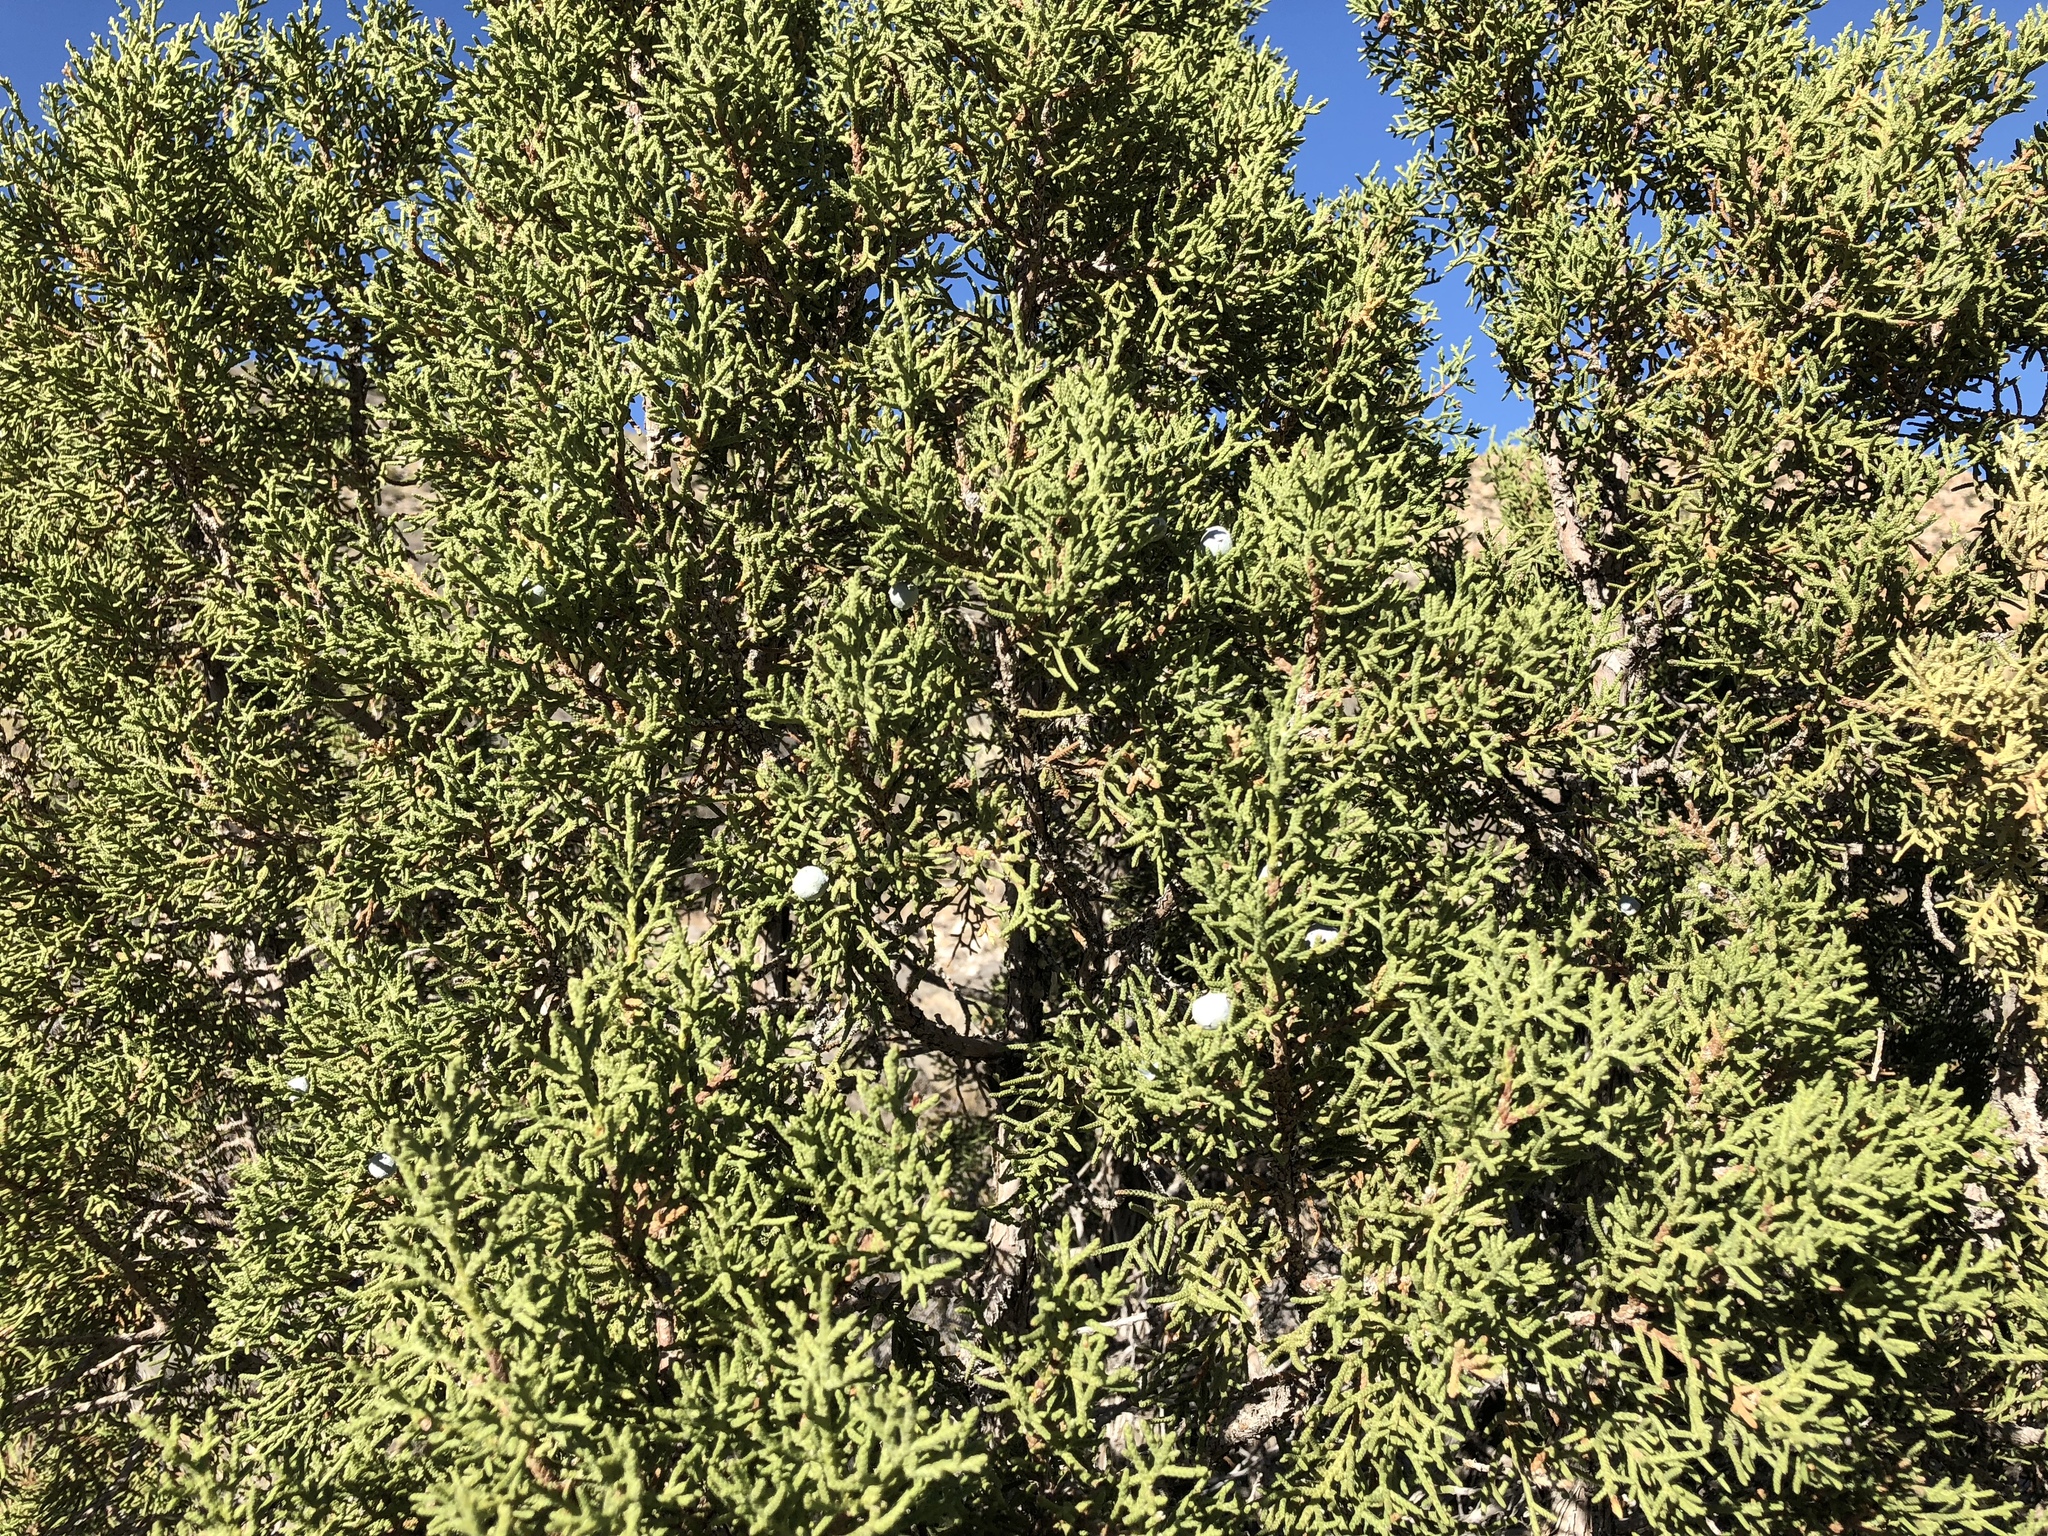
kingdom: Plantae
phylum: Tracheophyta
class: Pinopsida
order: Pinales
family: Cupressaceae
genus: Juniperus
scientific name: Juniperus osteosperma
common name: Utah juniper
